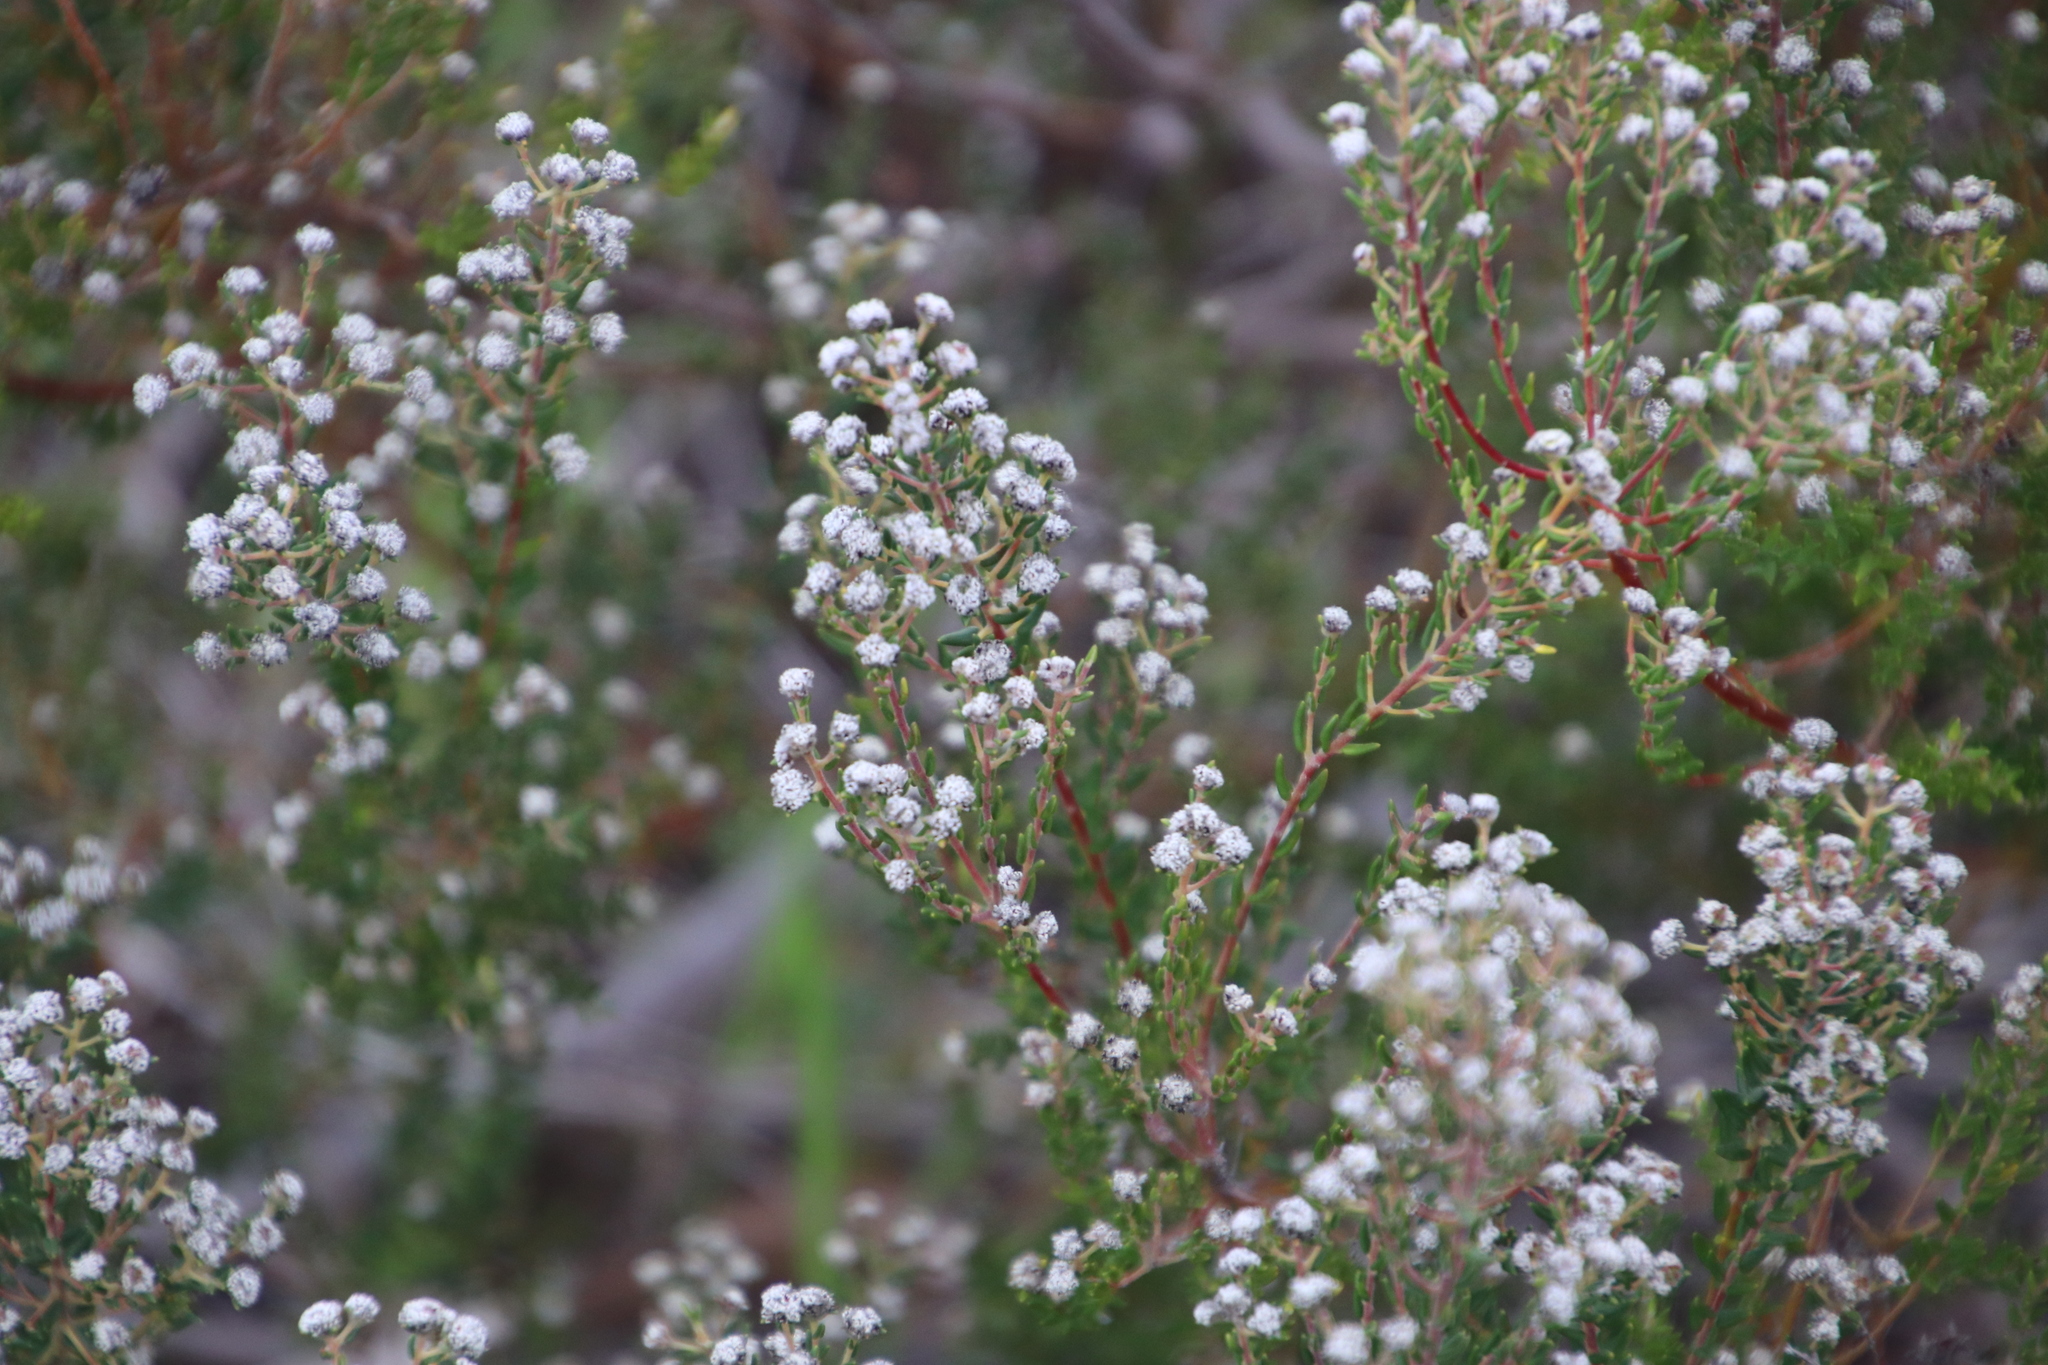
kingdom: Plantae
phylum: Tracheophyta
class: Magnoliopsida
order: Rosales
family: Rhamnaceae
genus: Phylica
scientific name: Phylica parviflora
